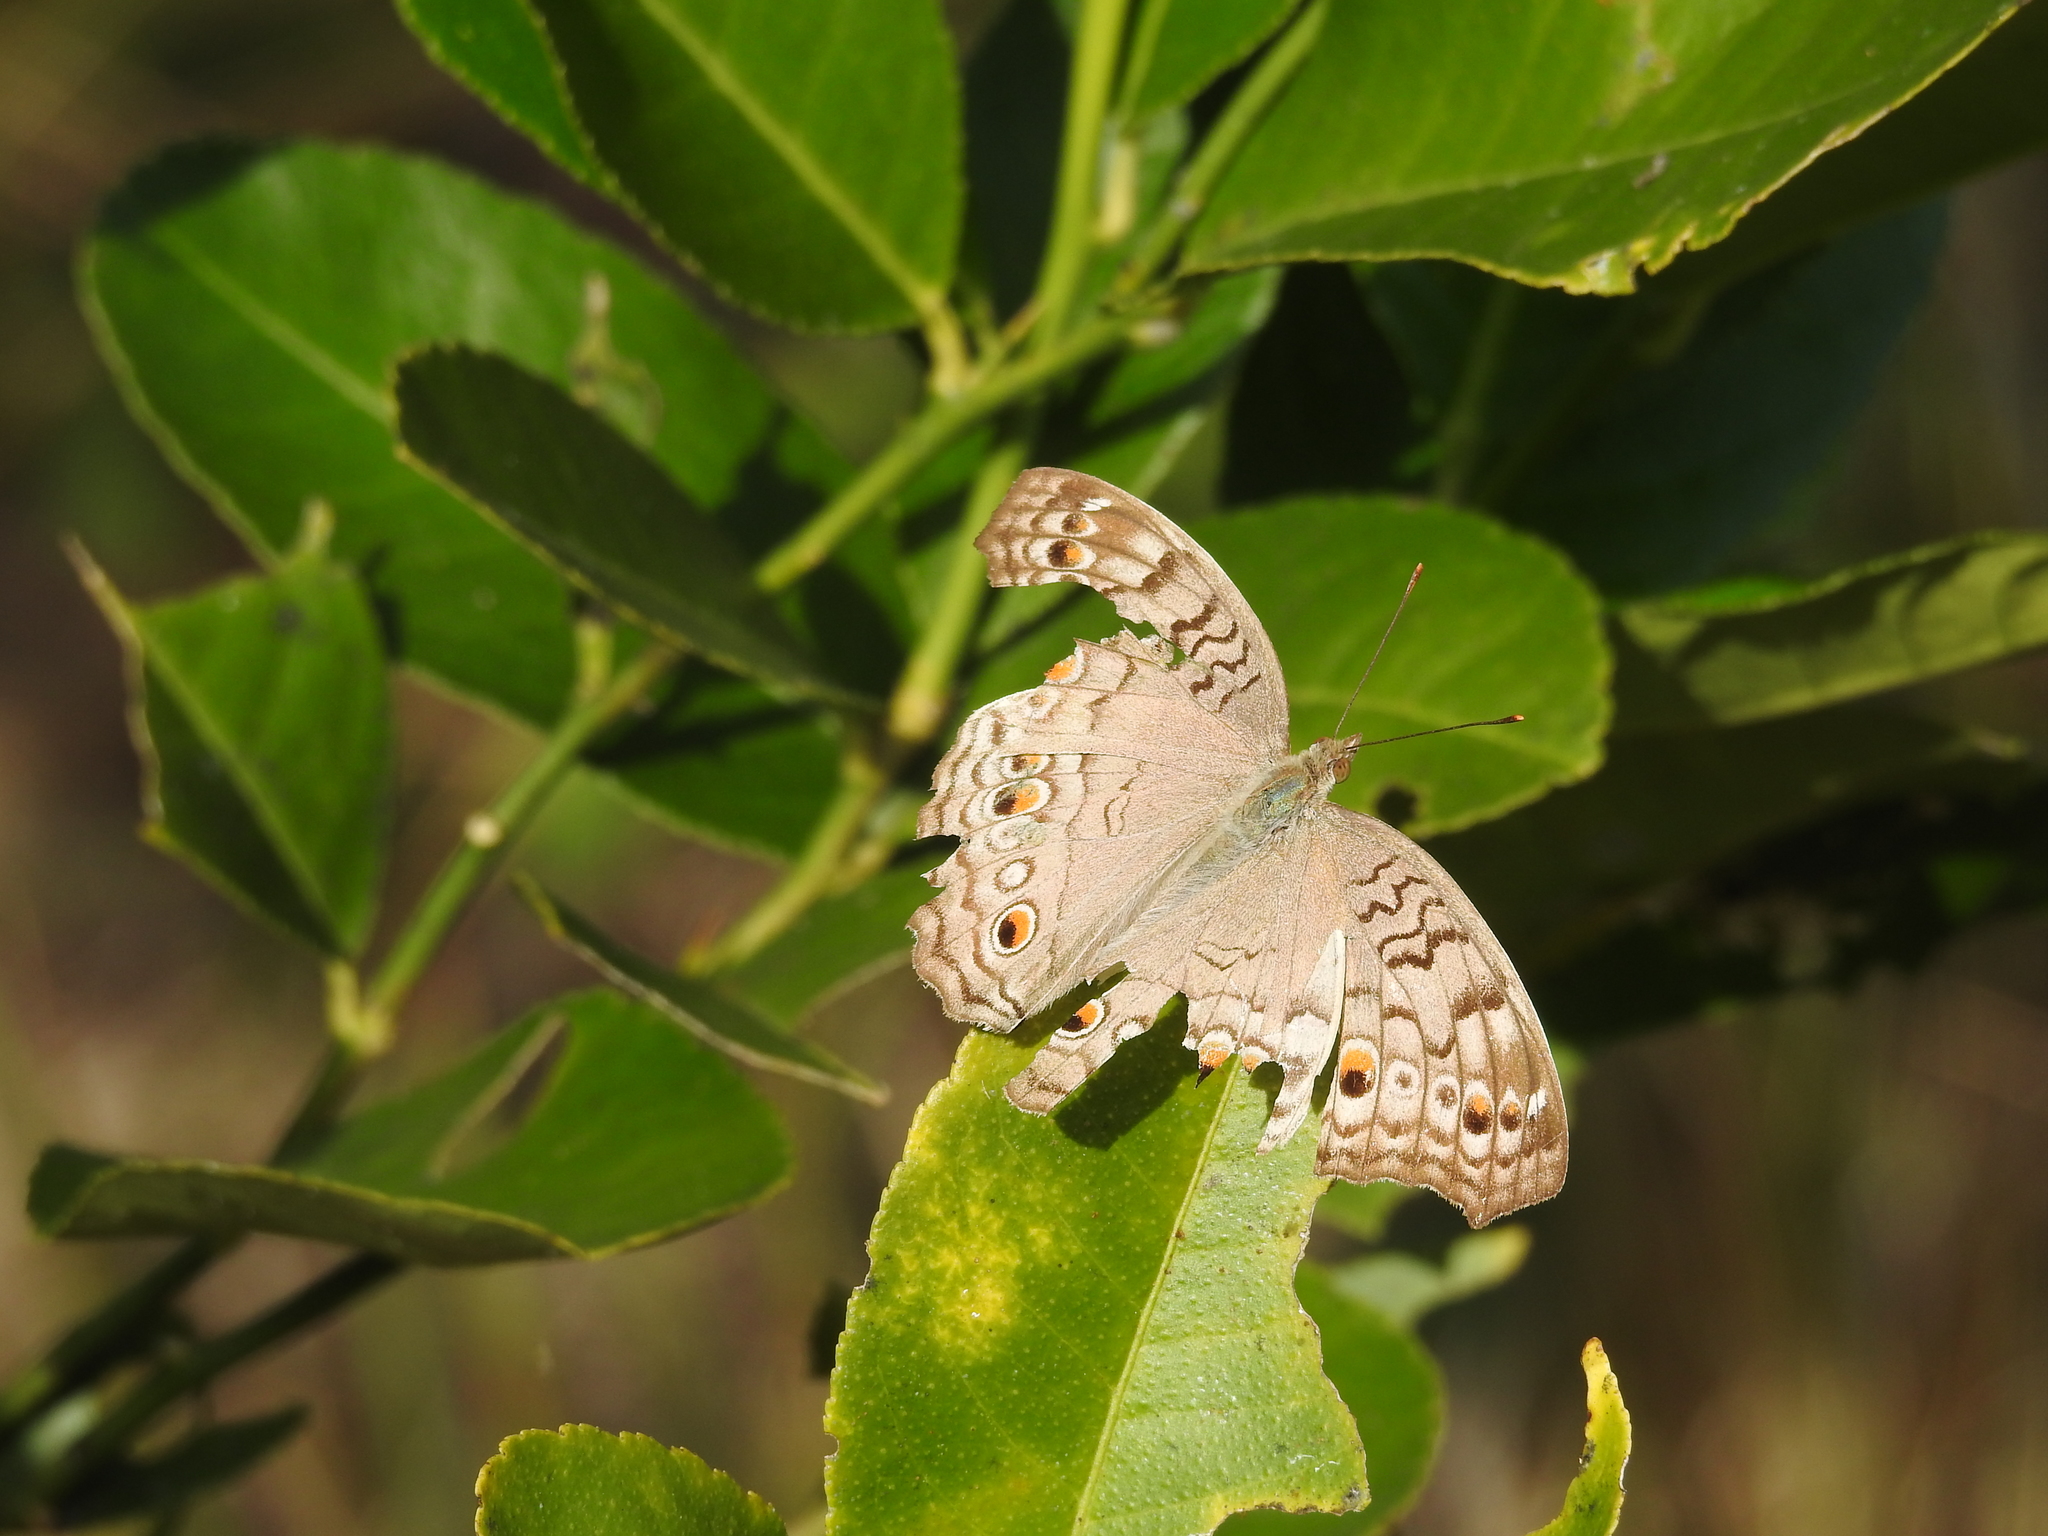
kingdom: Animalia
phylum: Arthropoda
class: Insecta
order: Lepidoptera
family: Nymphalidae
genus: Junonia
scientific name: Junonia atlites
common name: Grey pansy
